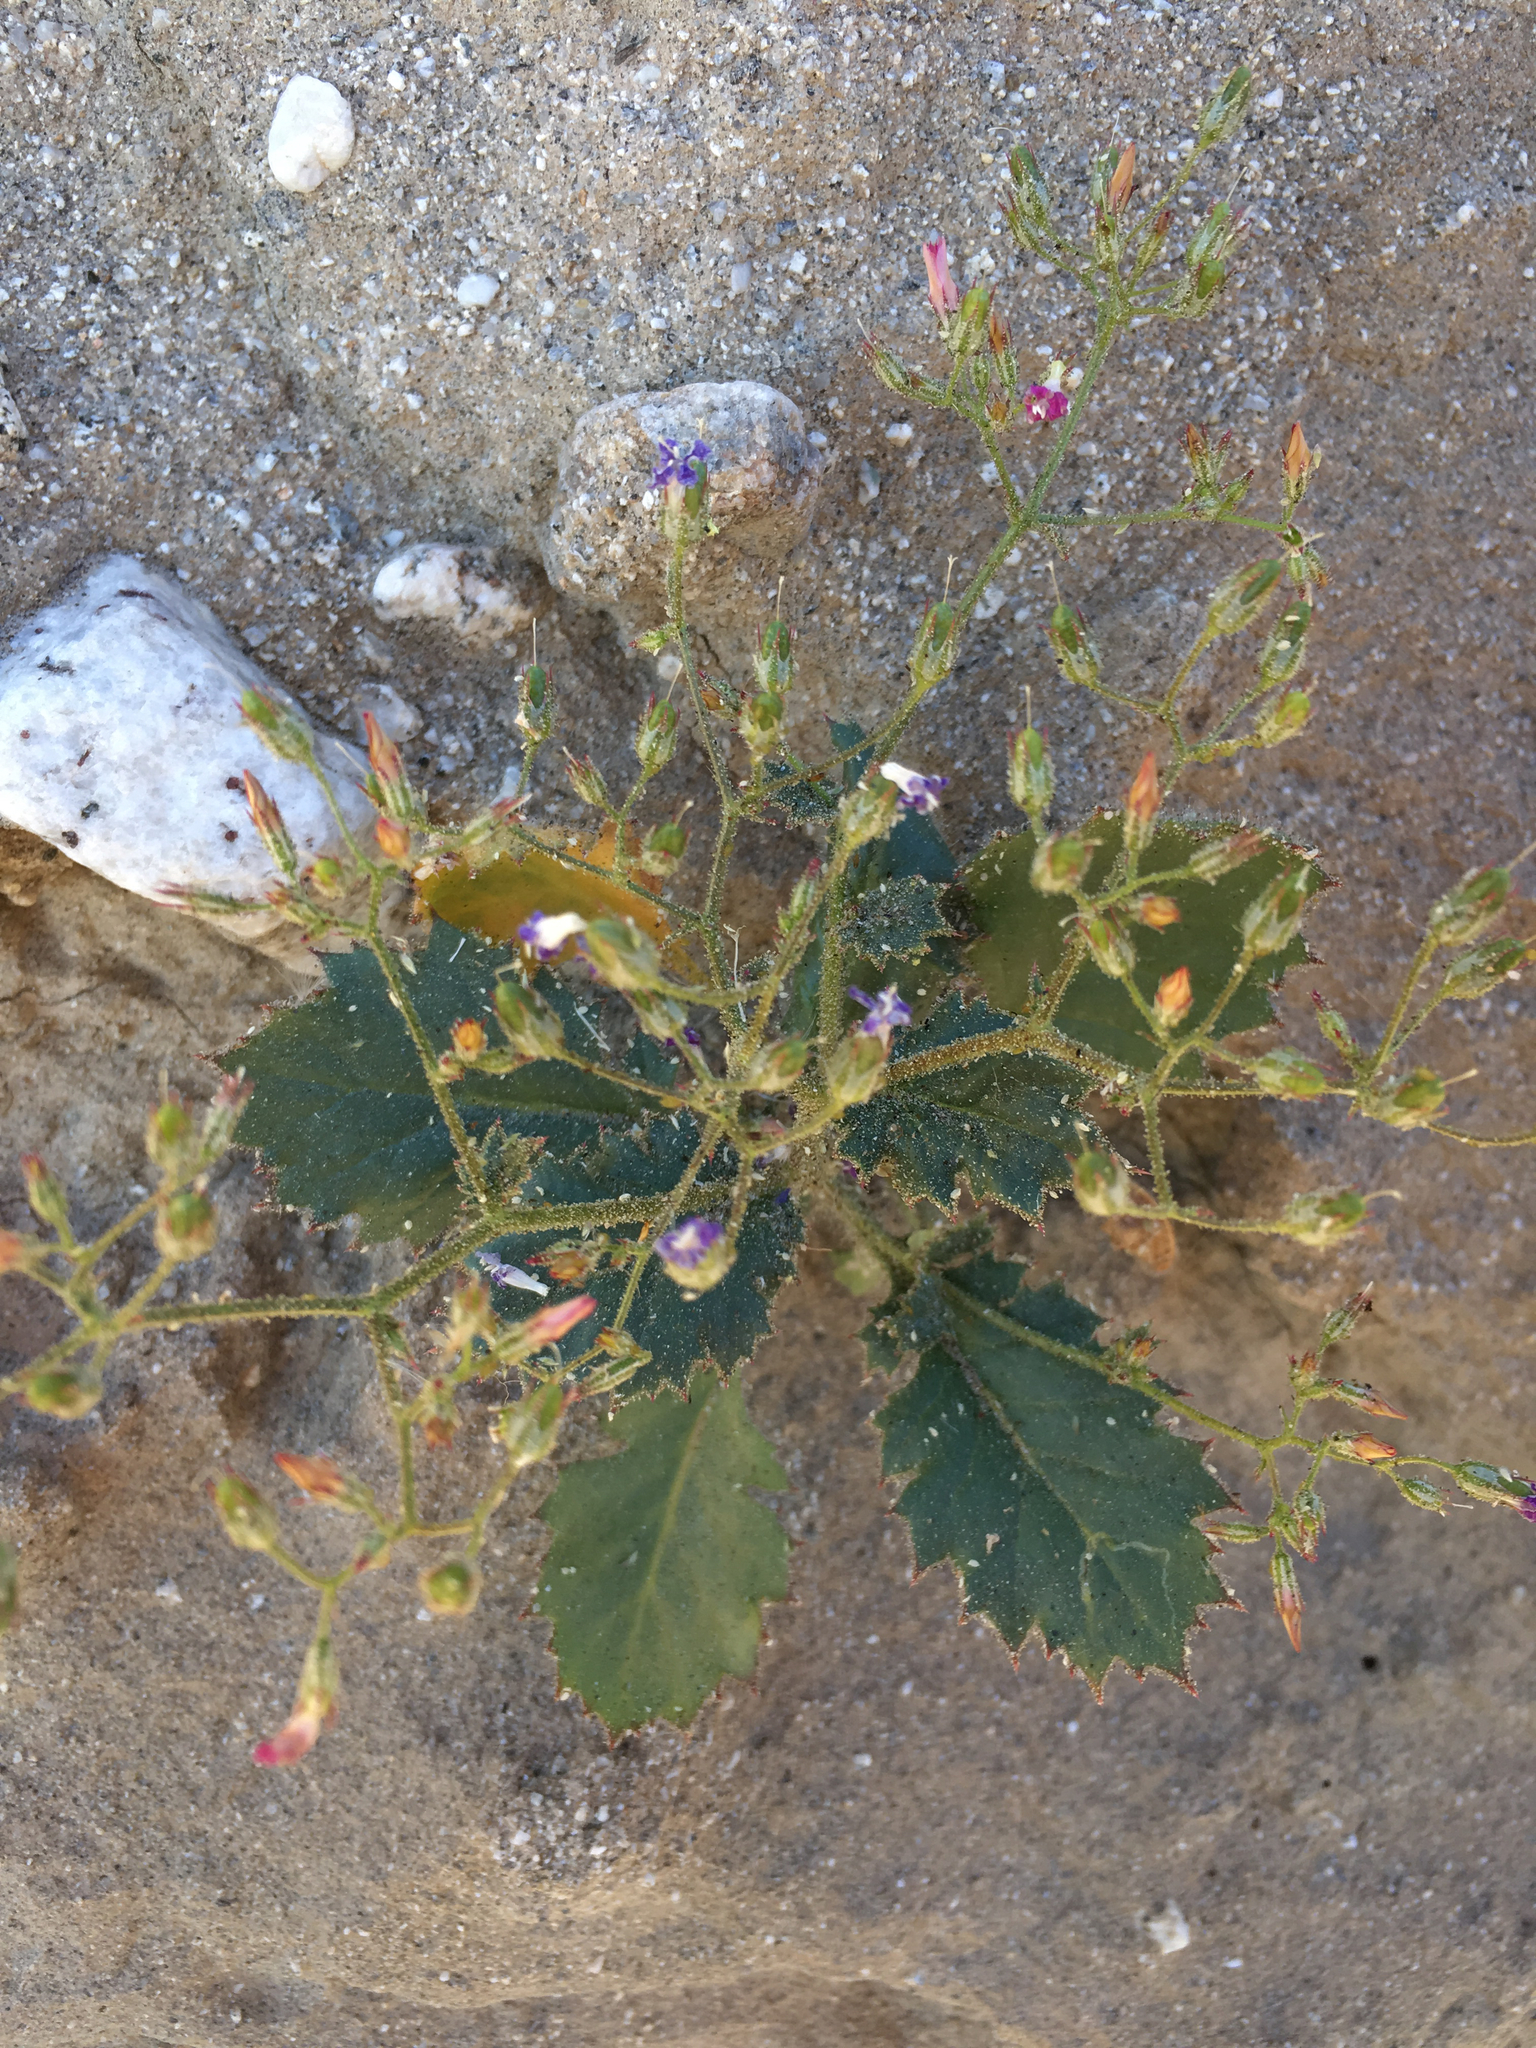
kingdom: Plantae
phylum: Tracheophyta
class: Magnoliopsida
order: Ericales
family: Polemoniaceae
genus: Aliciella
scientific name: Aliciella latifolia
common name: Broad-leaf gilia
